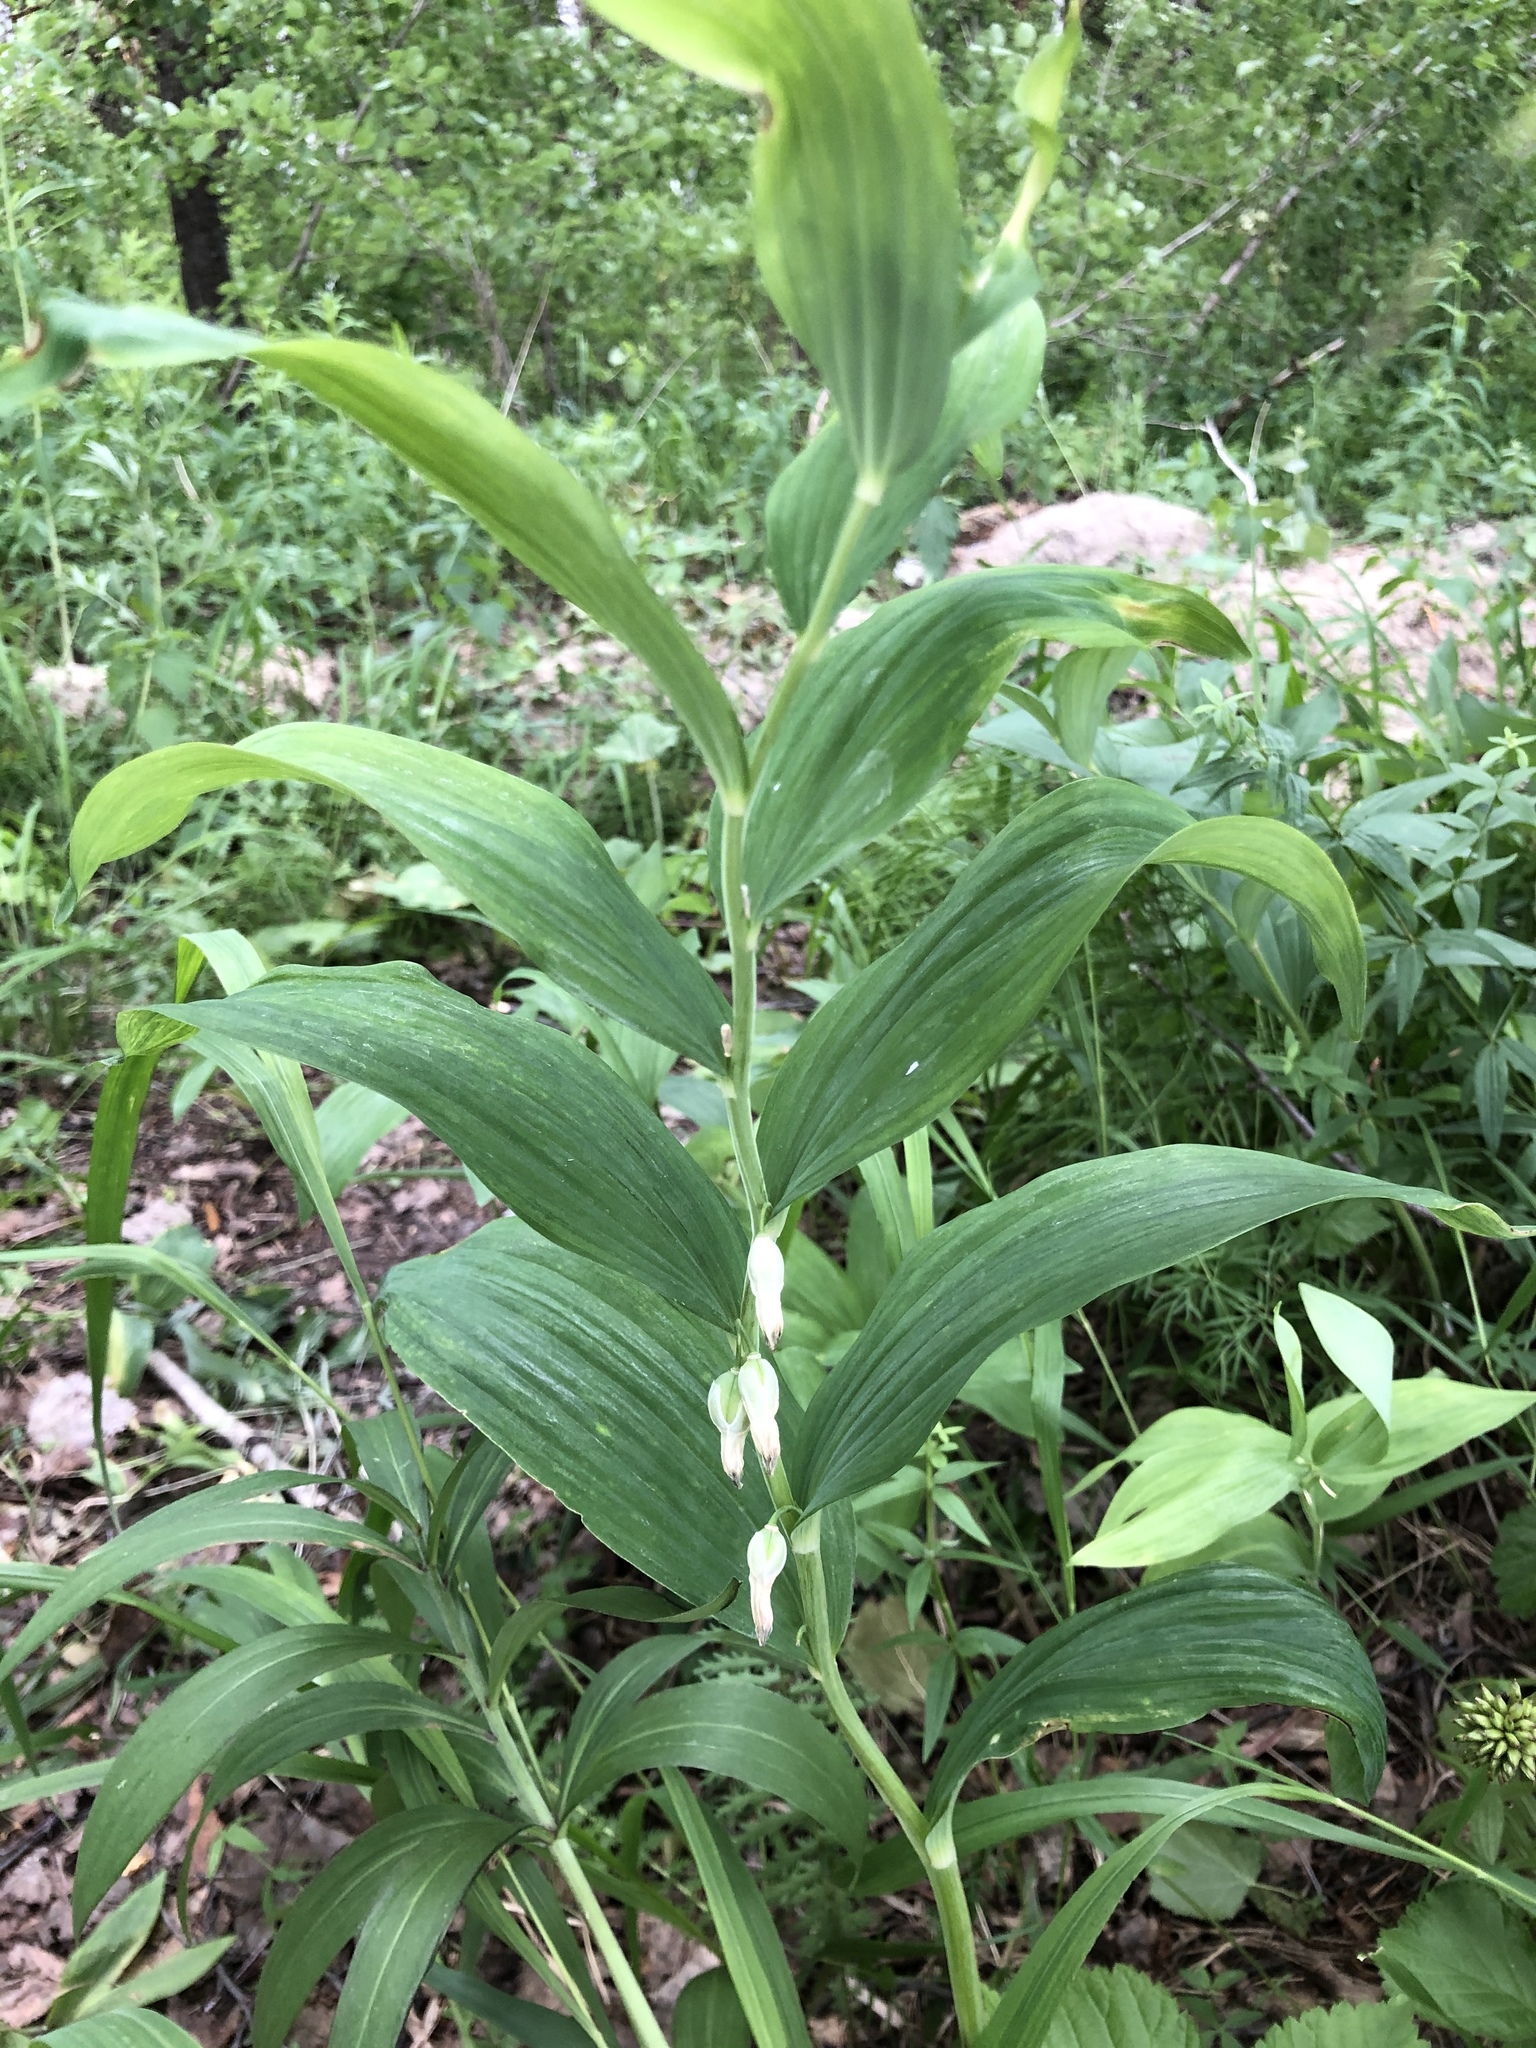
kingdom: Plantae
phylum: Tracheophyta
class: Liliopsida
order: Asparagales
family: Asparagaceae
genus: Polygonatum
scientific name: Polygonatum odoratum
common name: Angular solomon's-seal
